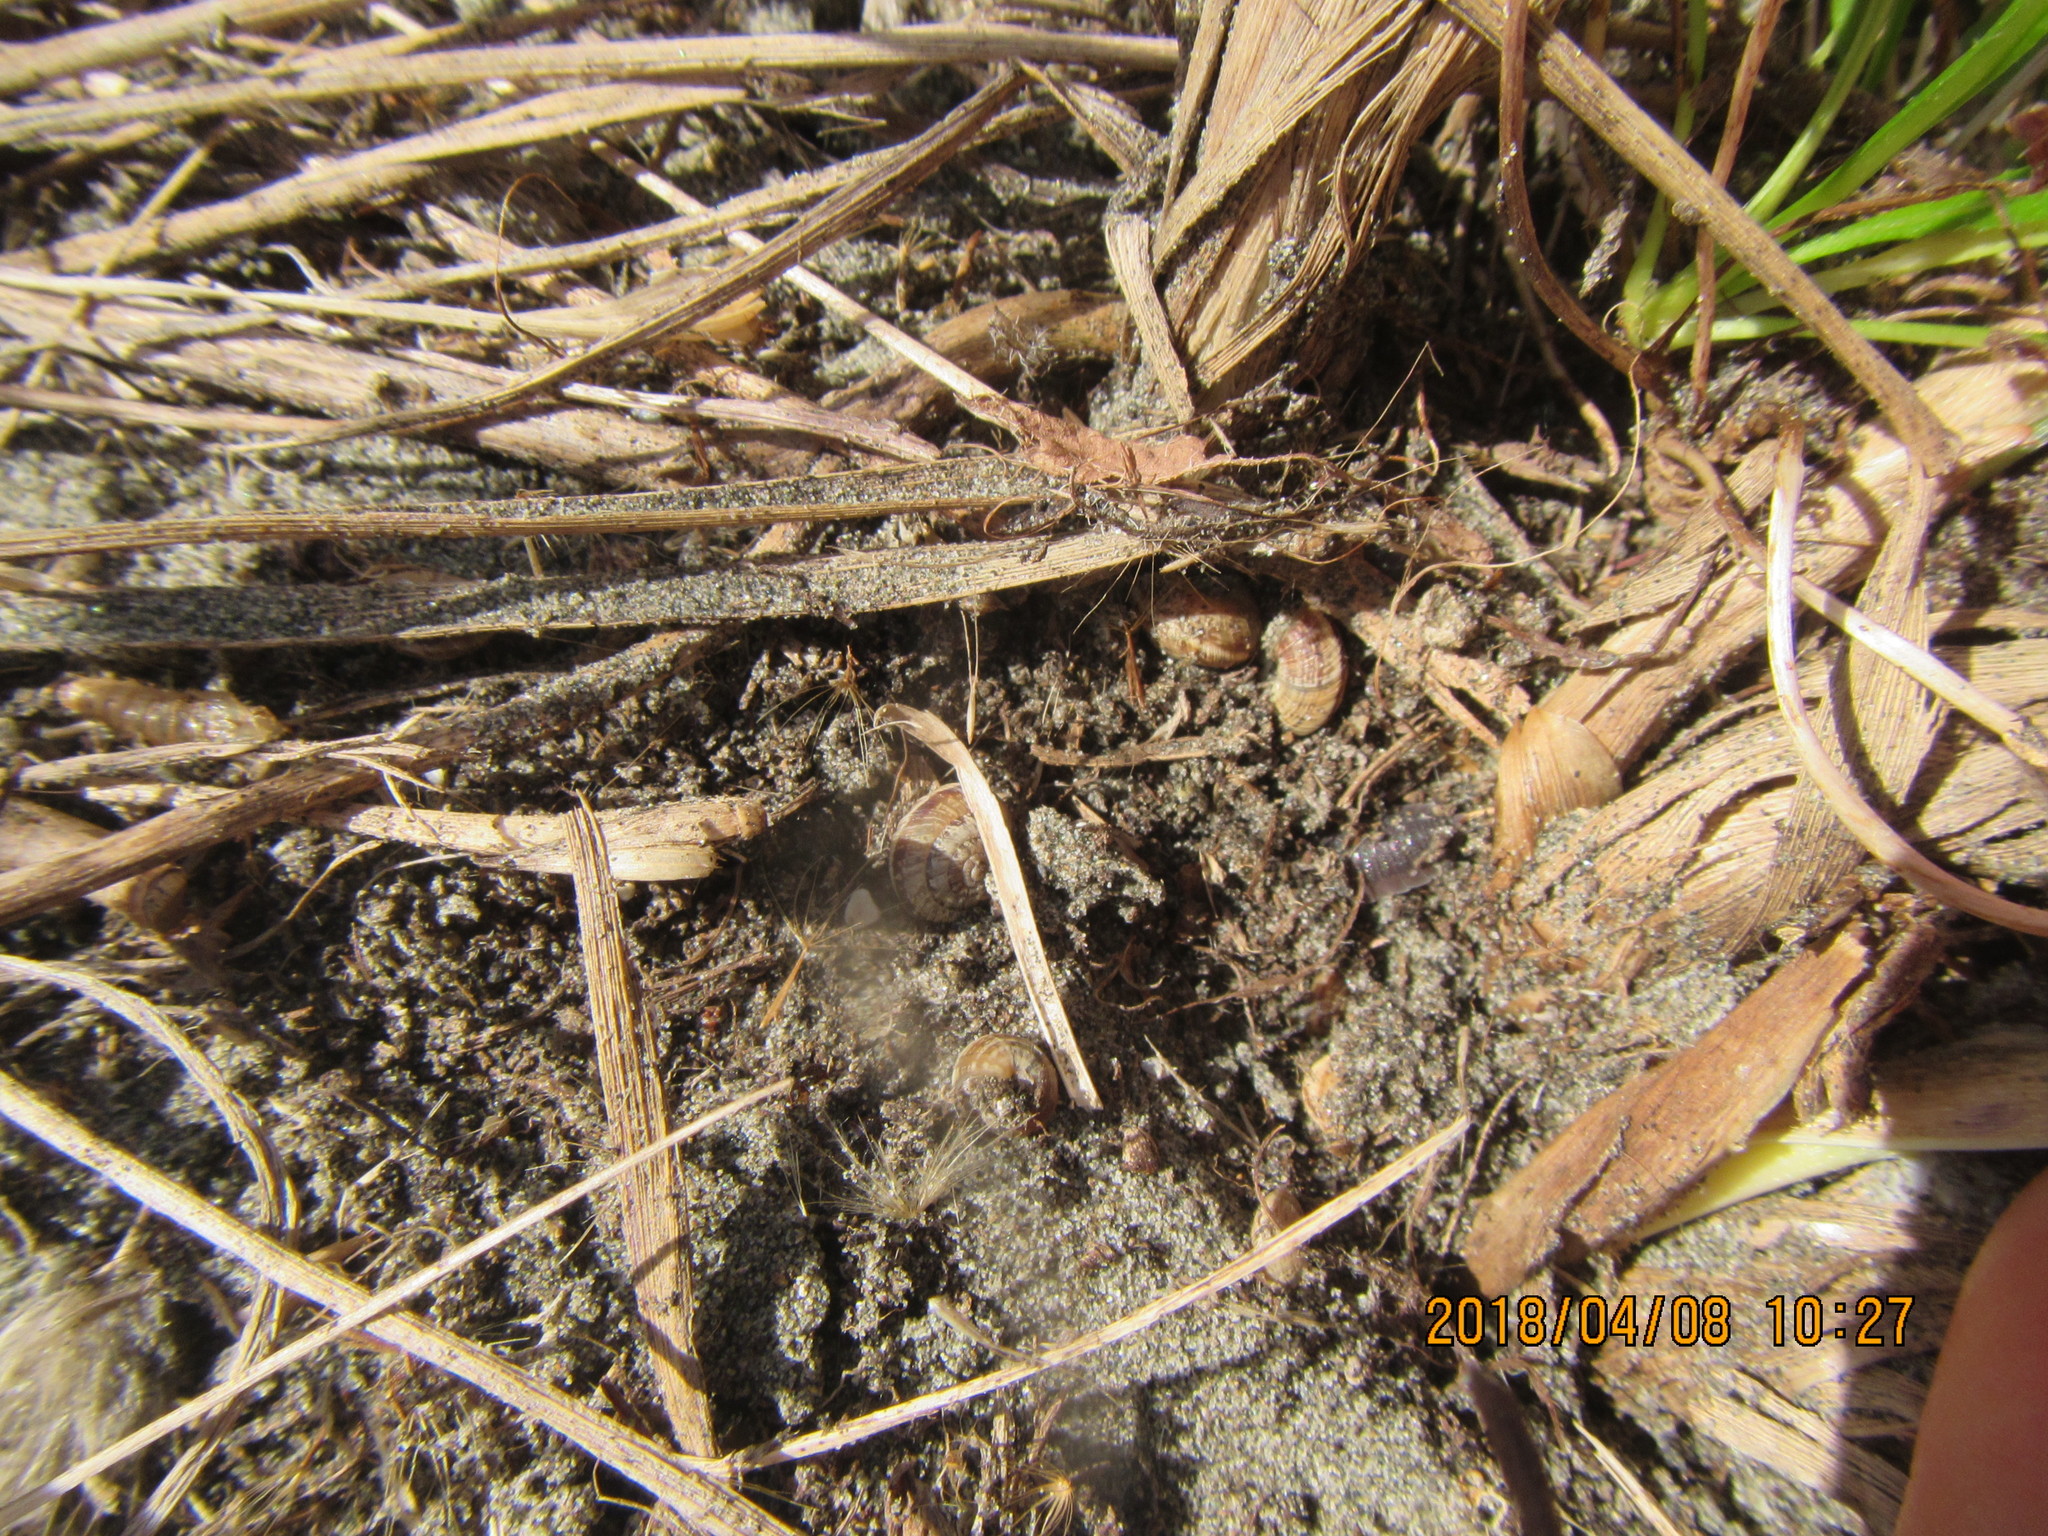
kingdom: Animalia
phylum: Mollusca
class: Gastropoda
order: Stylommatophora
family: Geomitridae
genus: Xeroplexa
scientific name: Xeroplexa intersecta
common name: Wrinkled snail
